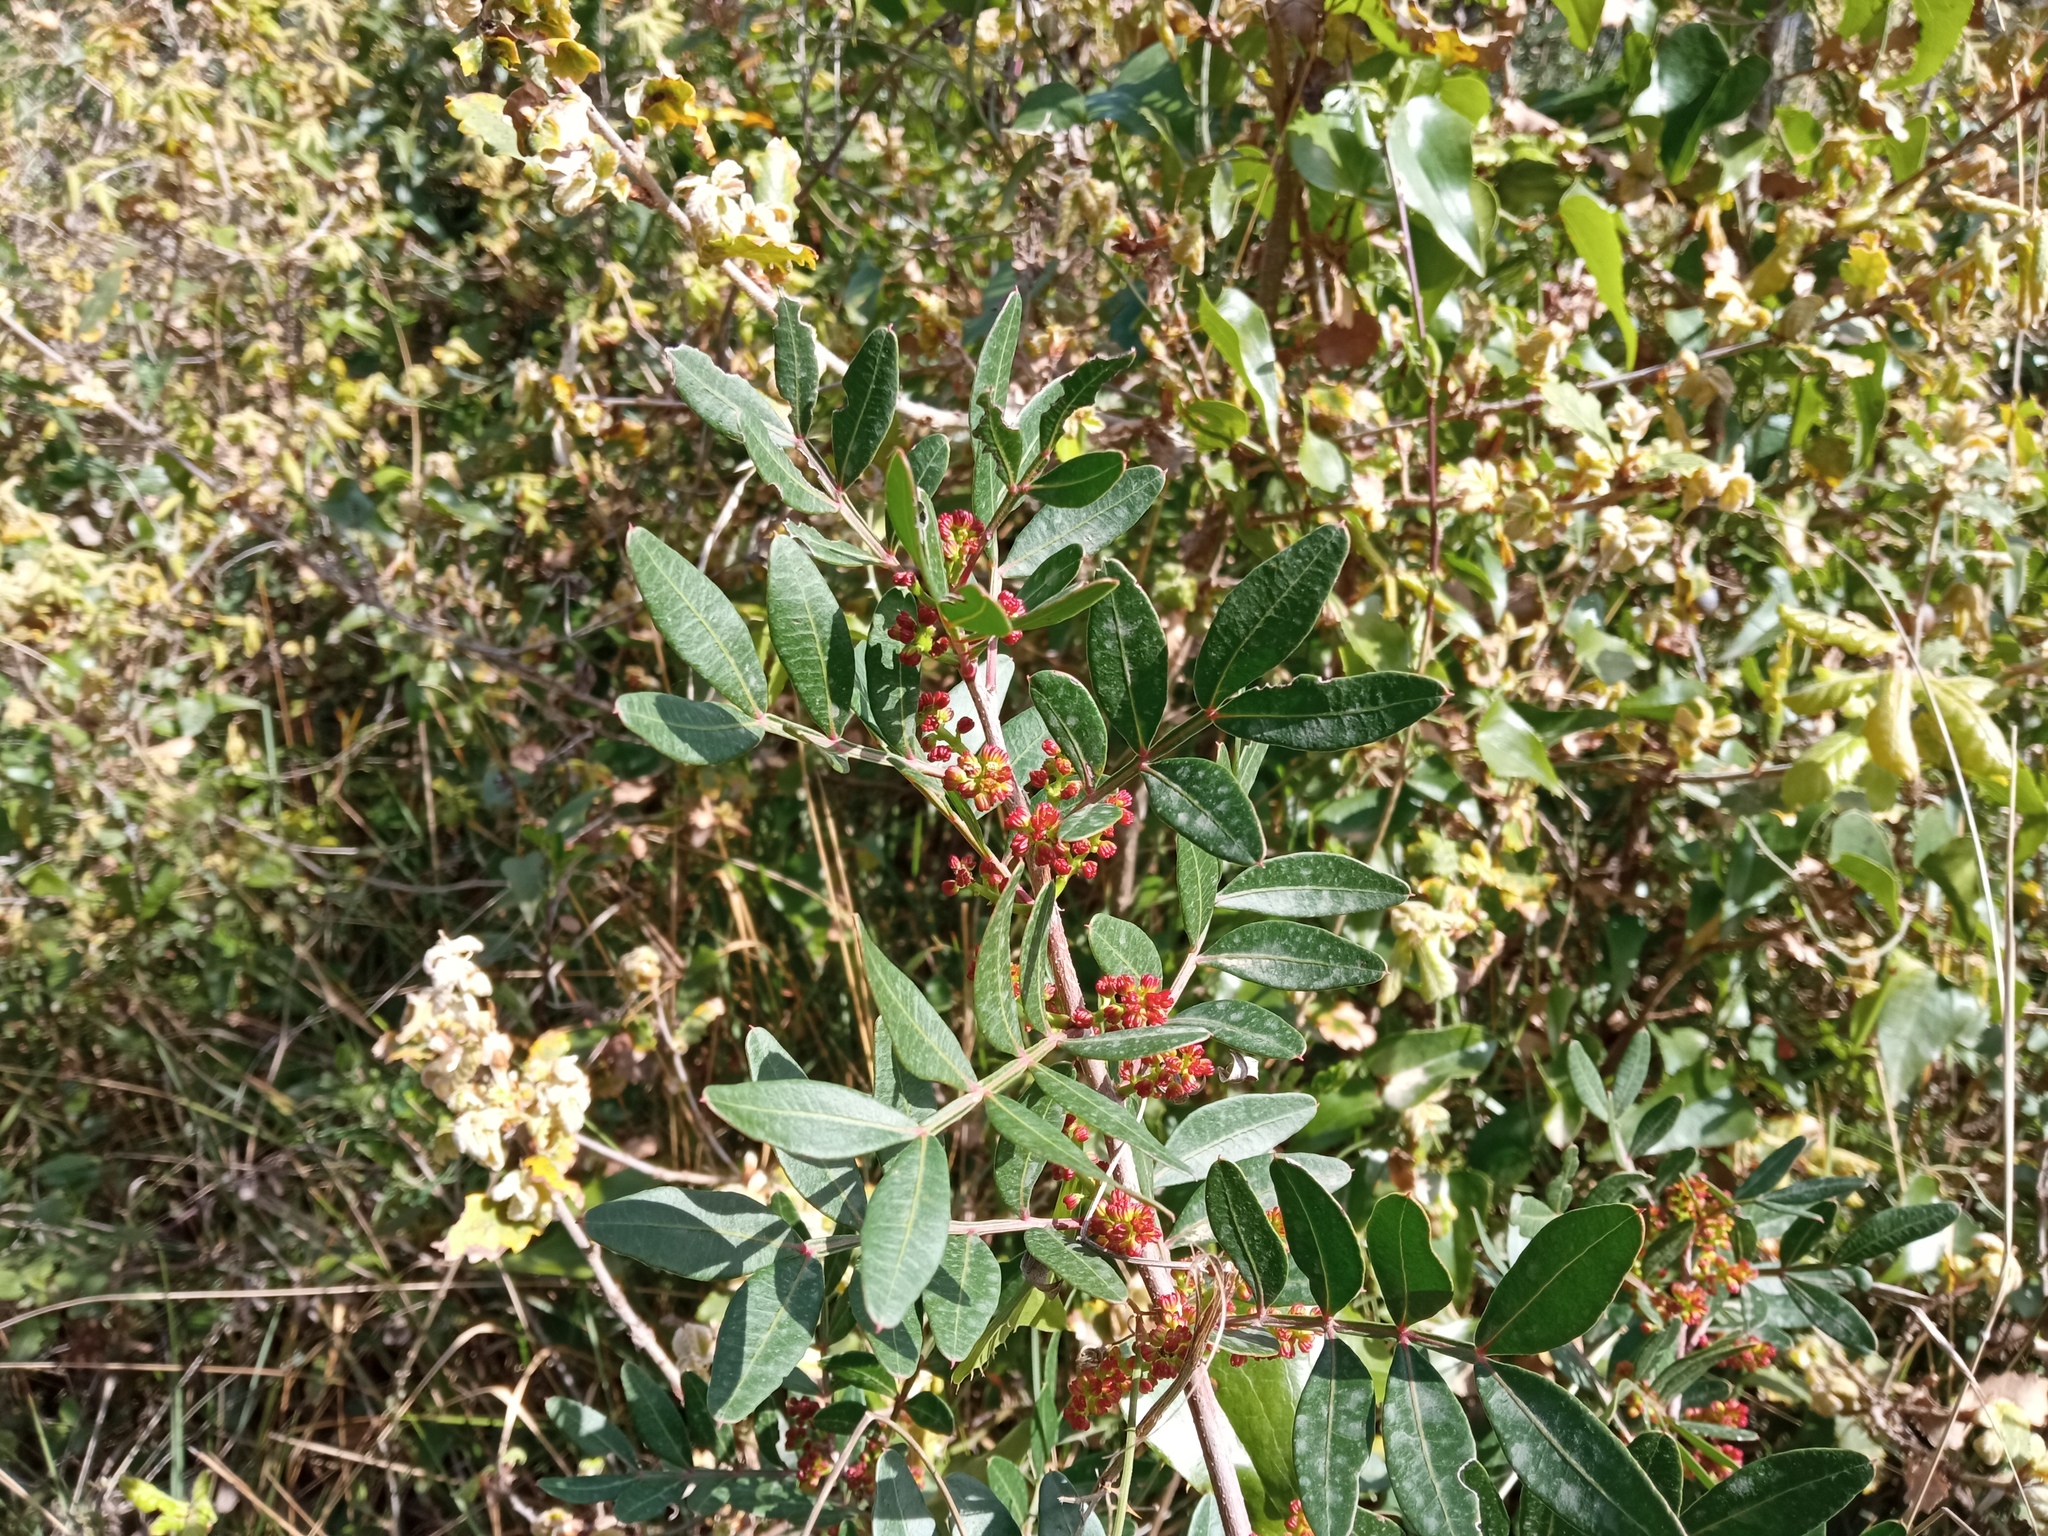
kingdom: Plantae
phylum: Tracheophyta
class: Magnoliopsida
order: Sapindales
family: Anacardiaceae
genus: Pistacia
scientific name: Pistacia lentiscus
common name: Lentisk
